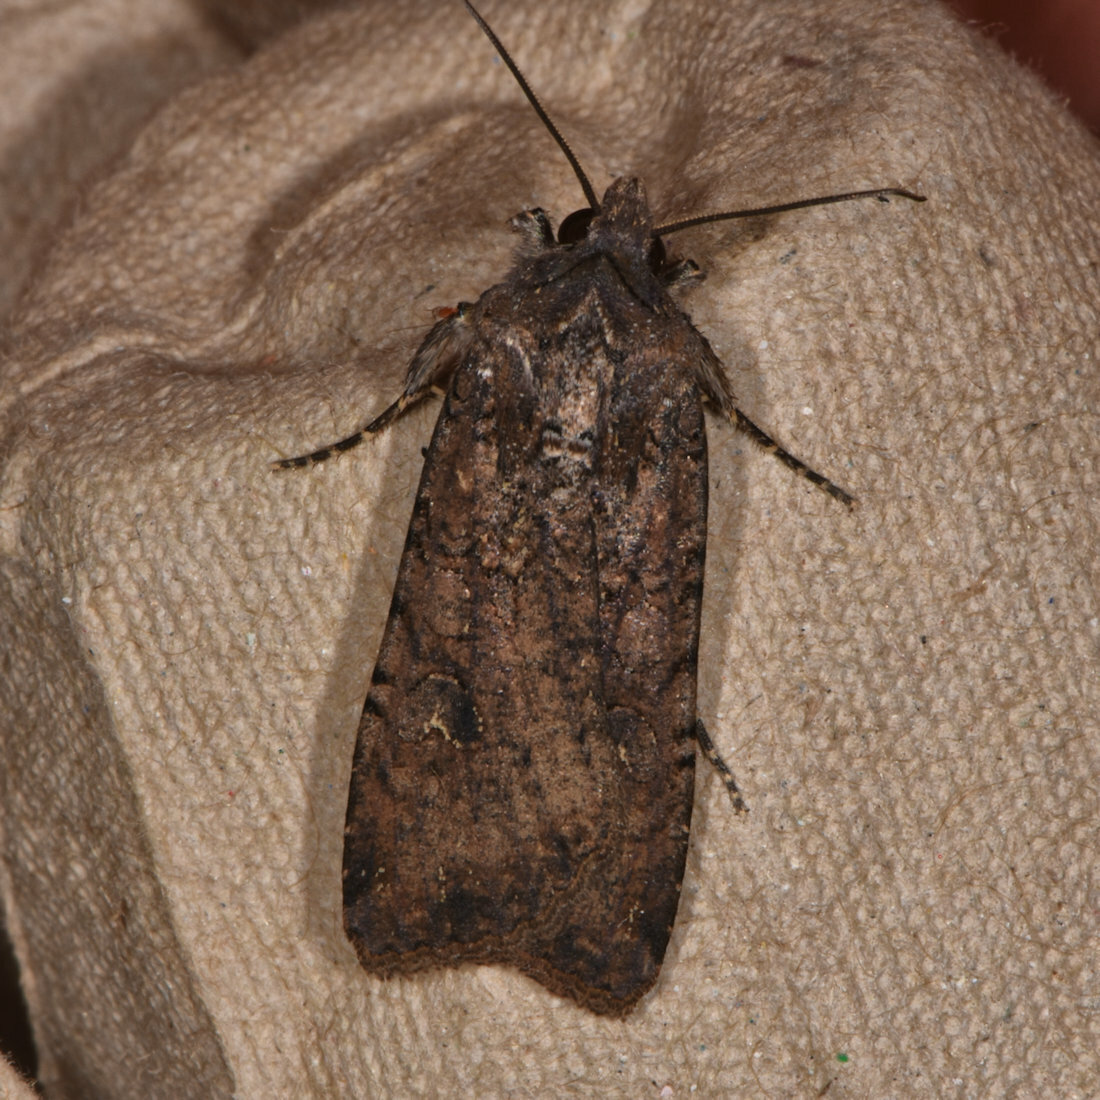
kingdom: Animalia
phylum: Arthropoda
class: Insecta
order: Lepidoptera
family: Noctuidae
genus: Peridroma
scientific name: Peridroma saucia
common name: Pearly underwing
